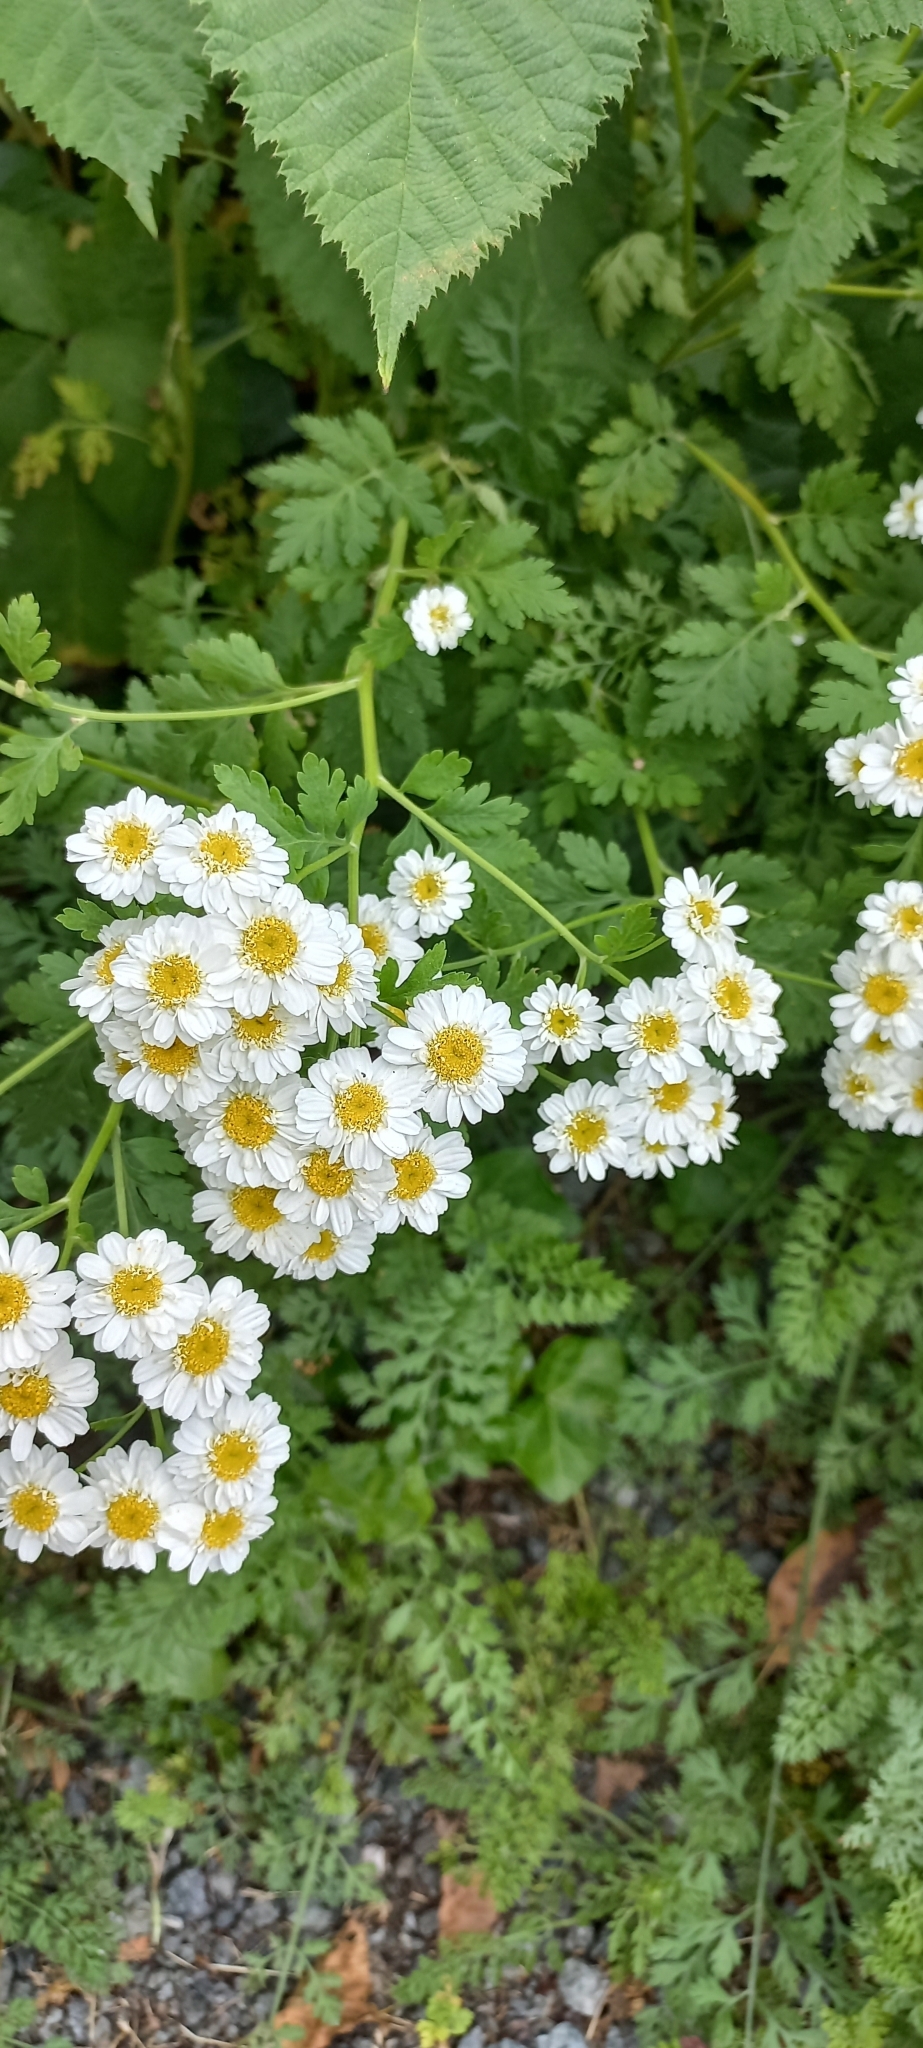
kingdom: Plantae
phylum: Tracheophyta
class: Magnoliopsida
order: Asterales
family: Asteraceae
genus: Tanacetum
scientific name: Tanacetum parthenium
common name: Feverfew
